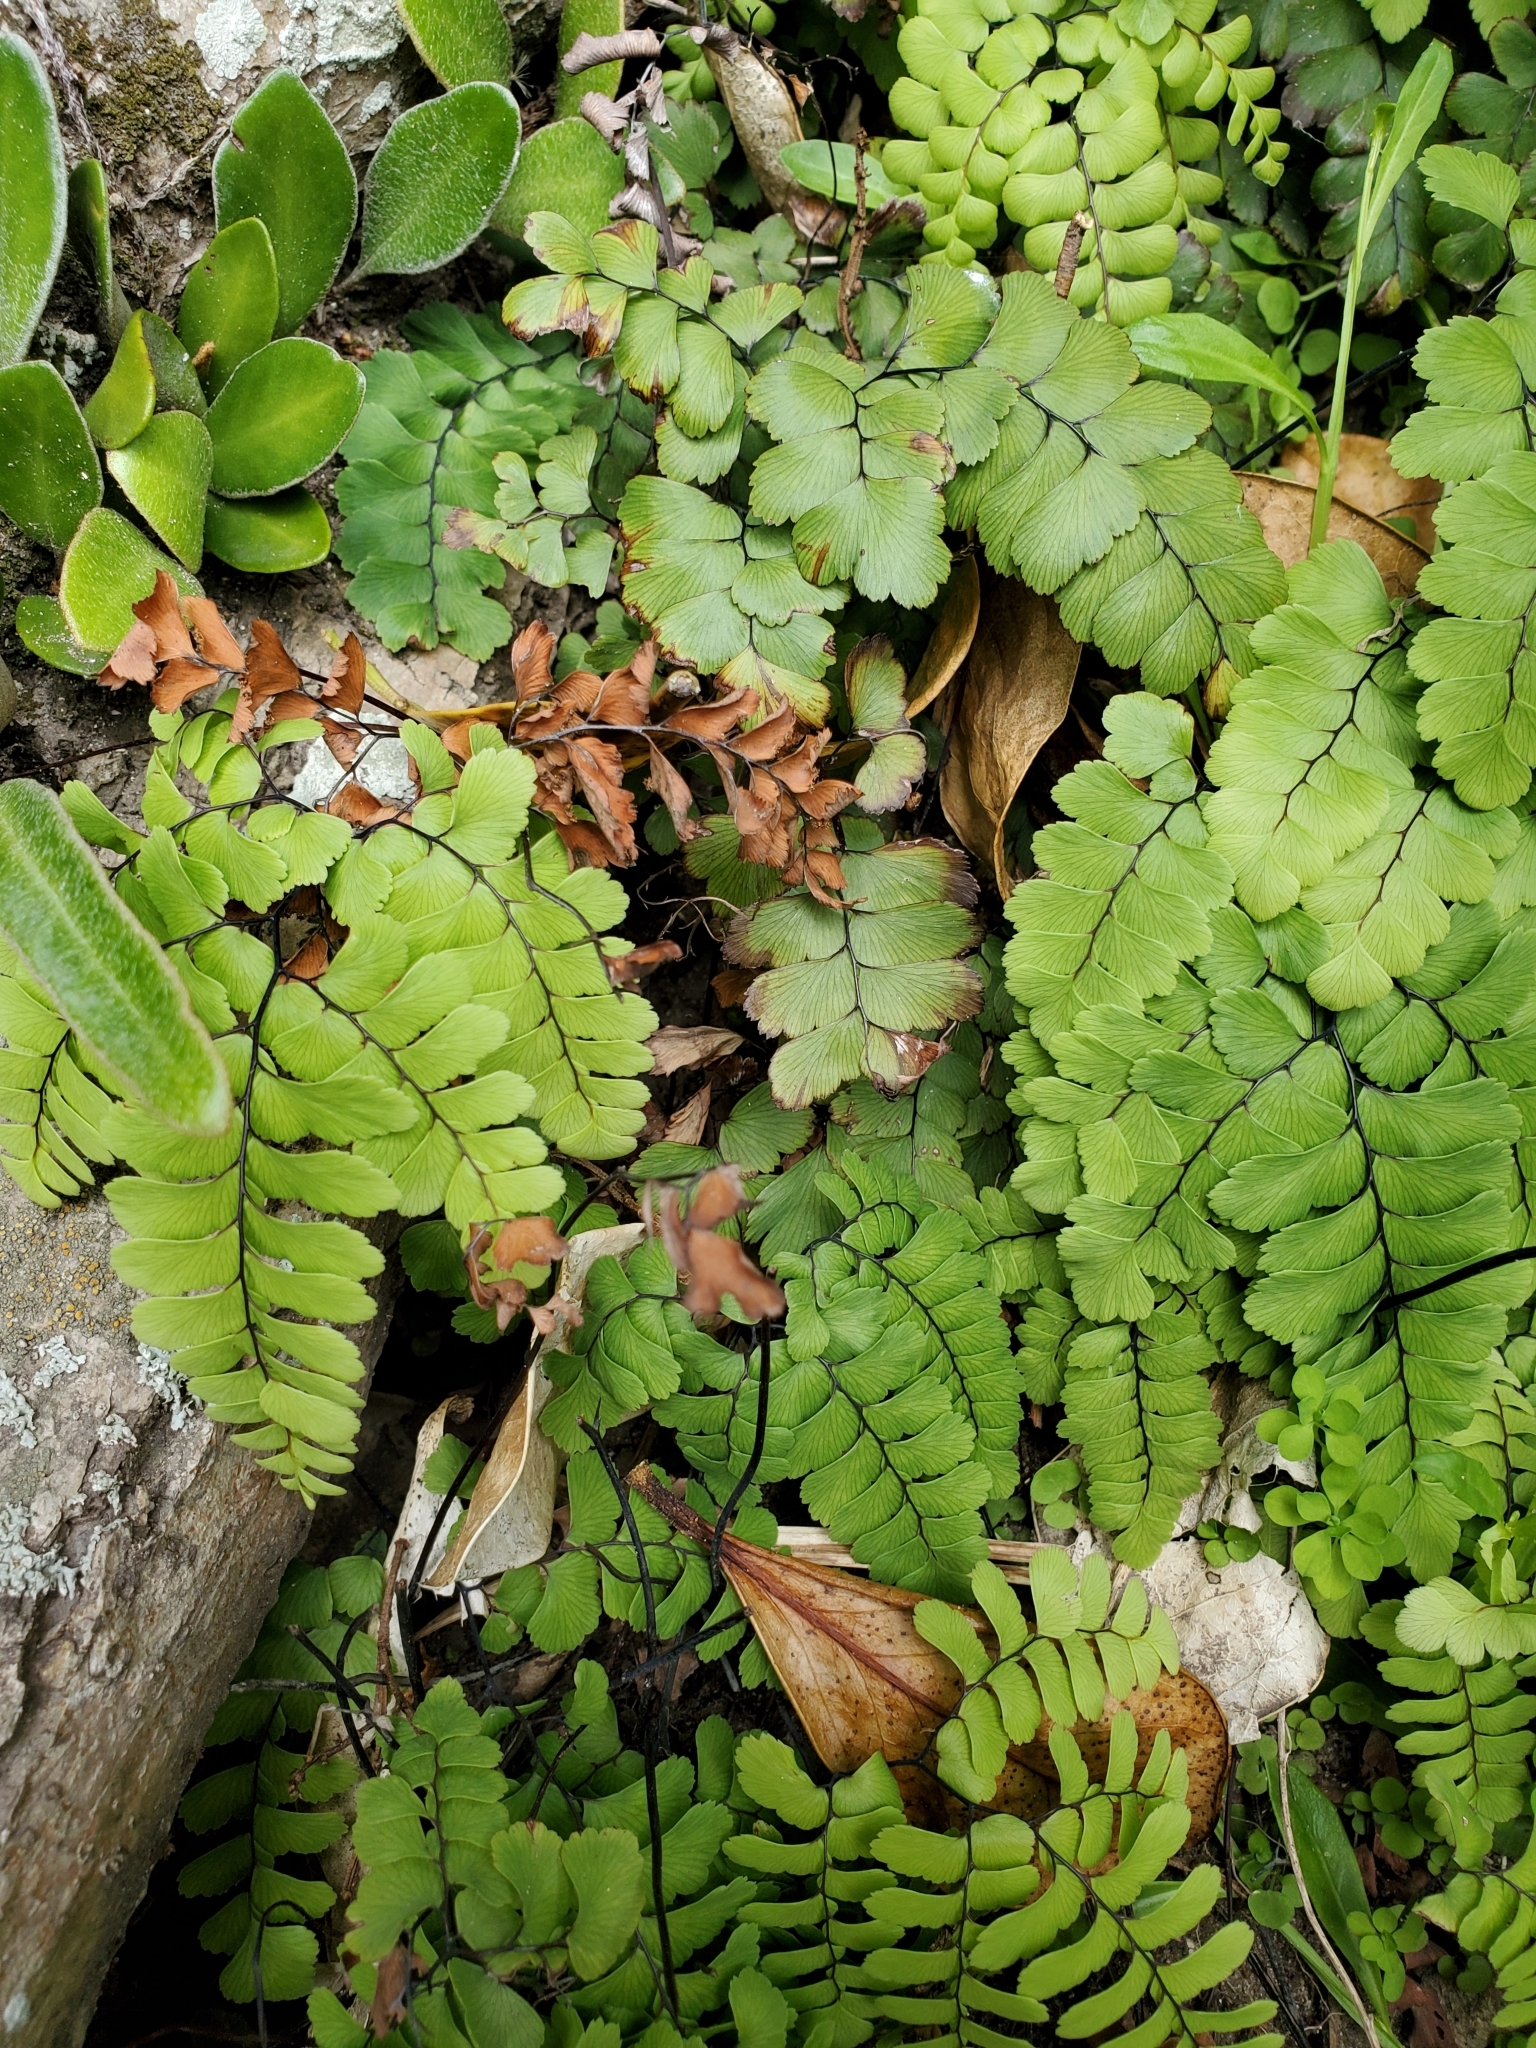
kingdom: Plantae
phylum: Tracheophyta
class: Polypodiopsida
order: Polypodiales
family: Pteridaceae
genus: Adiantum
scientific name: Adiantum cunninghamii
